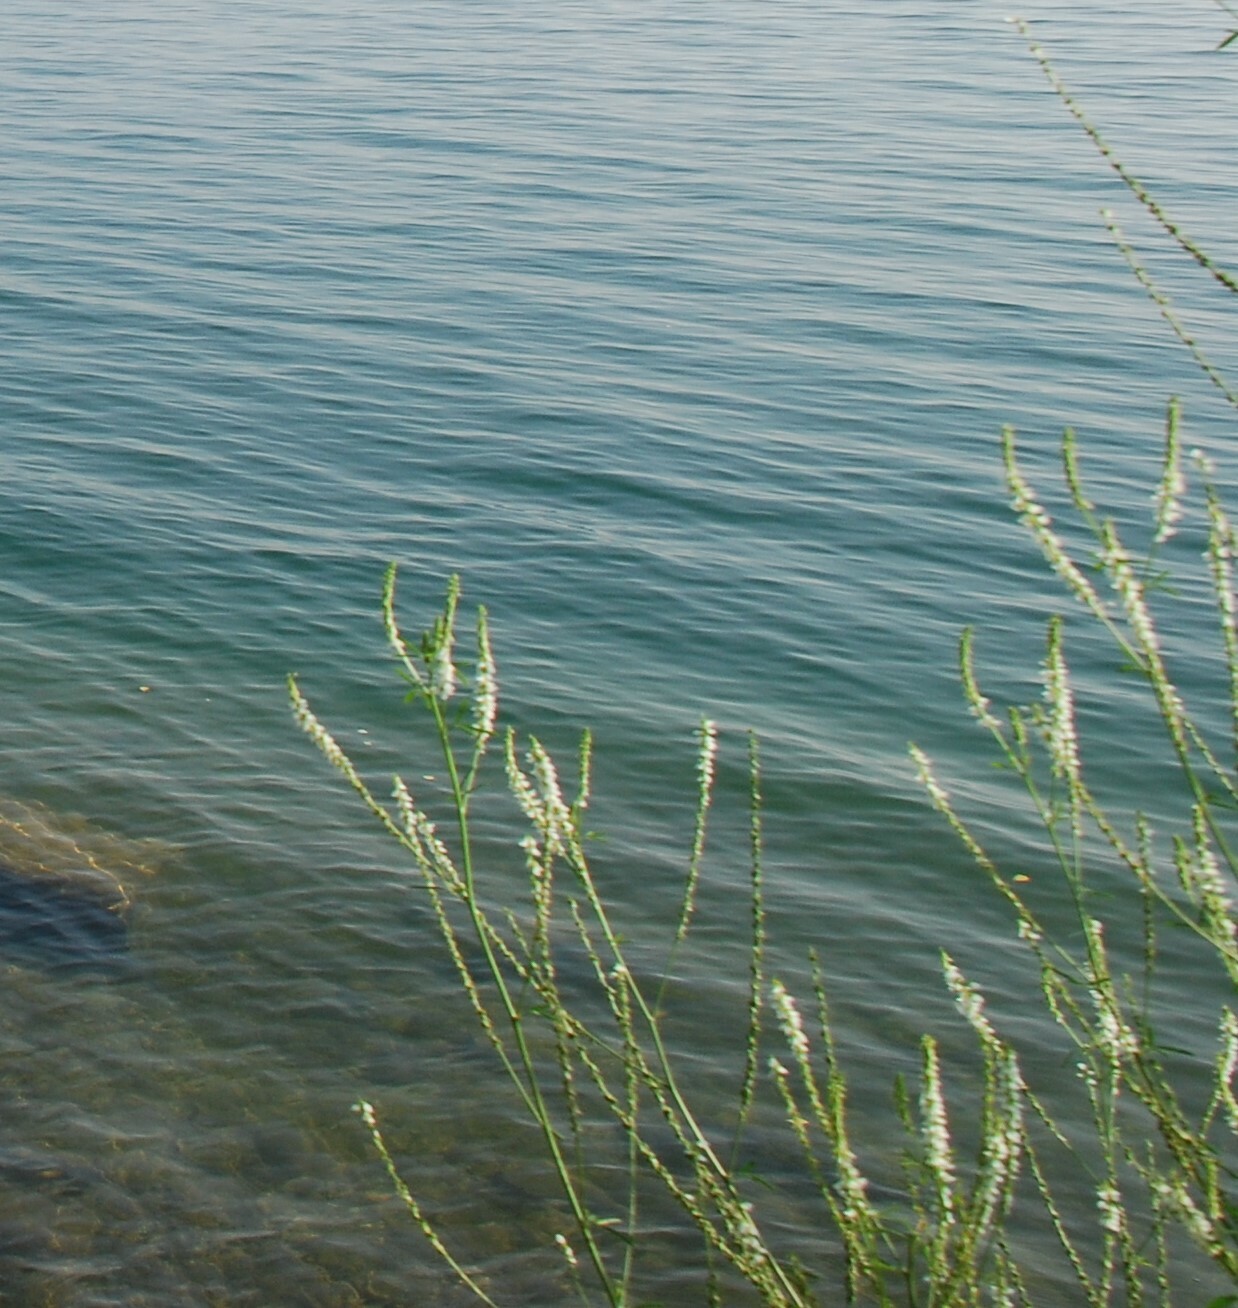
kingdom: Plantae
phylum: Tracheophyta
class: Magnoliopsida
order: Fabales
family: Fabaceae
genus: Melilotus
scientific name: Melilotus albus
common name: White melilot
